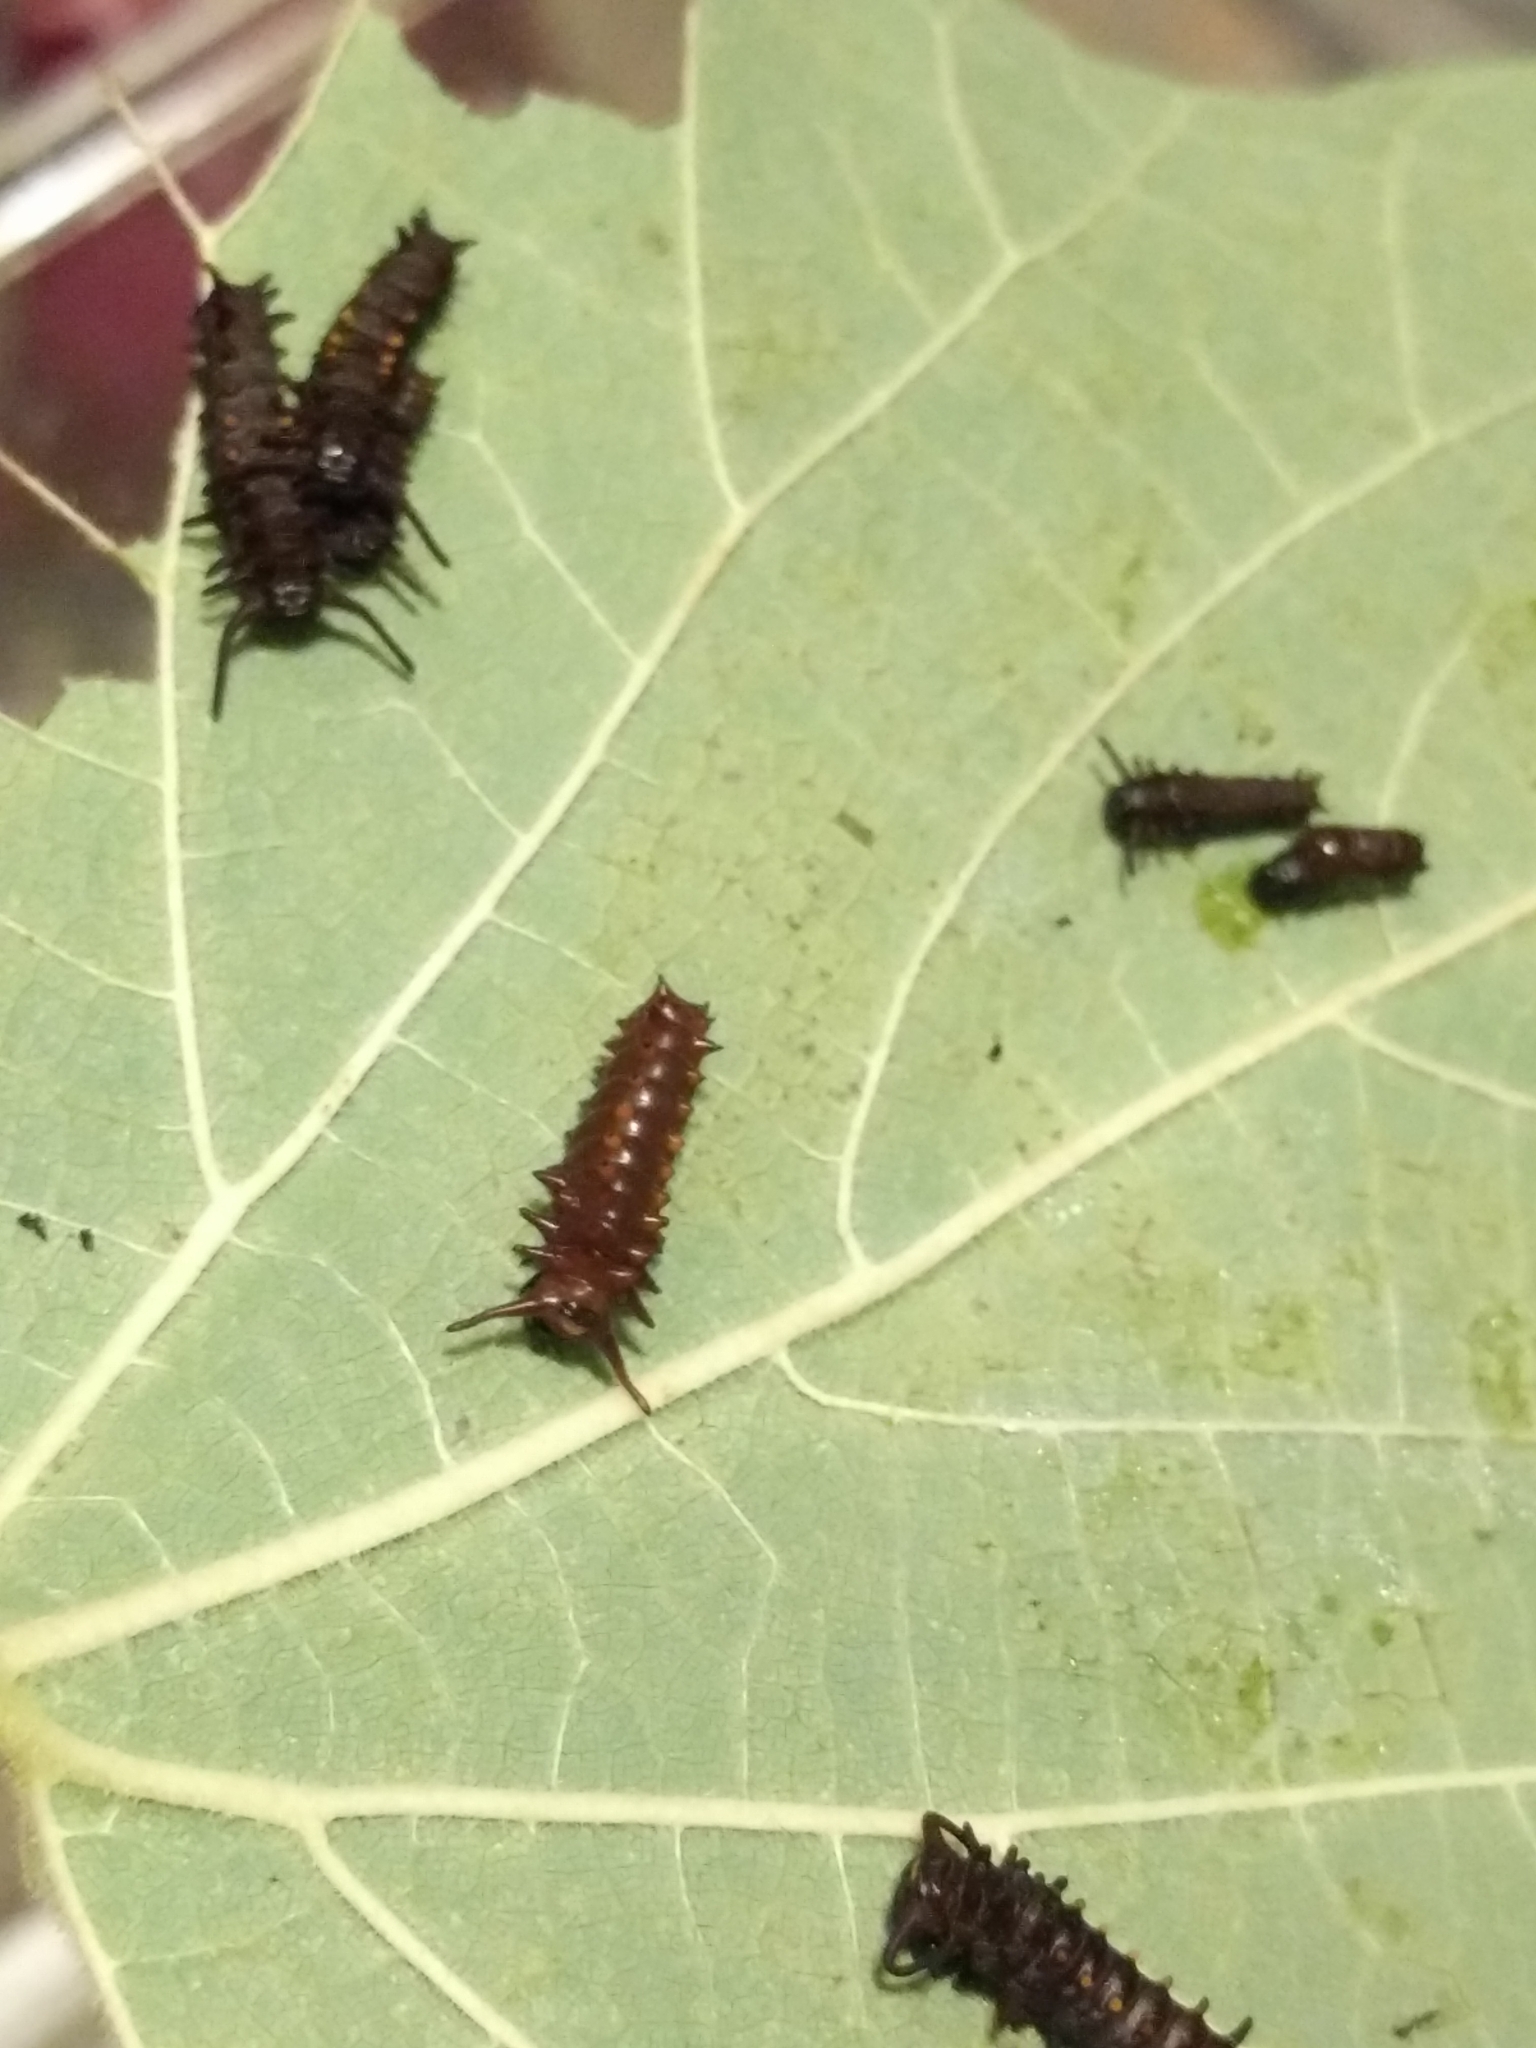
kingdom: Animalia
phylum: Arthropoda
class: Insecta
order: Lepidoptera
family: Papilionidae
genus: Battus
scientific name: Battus philenor
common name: Pipevine swallowtail
